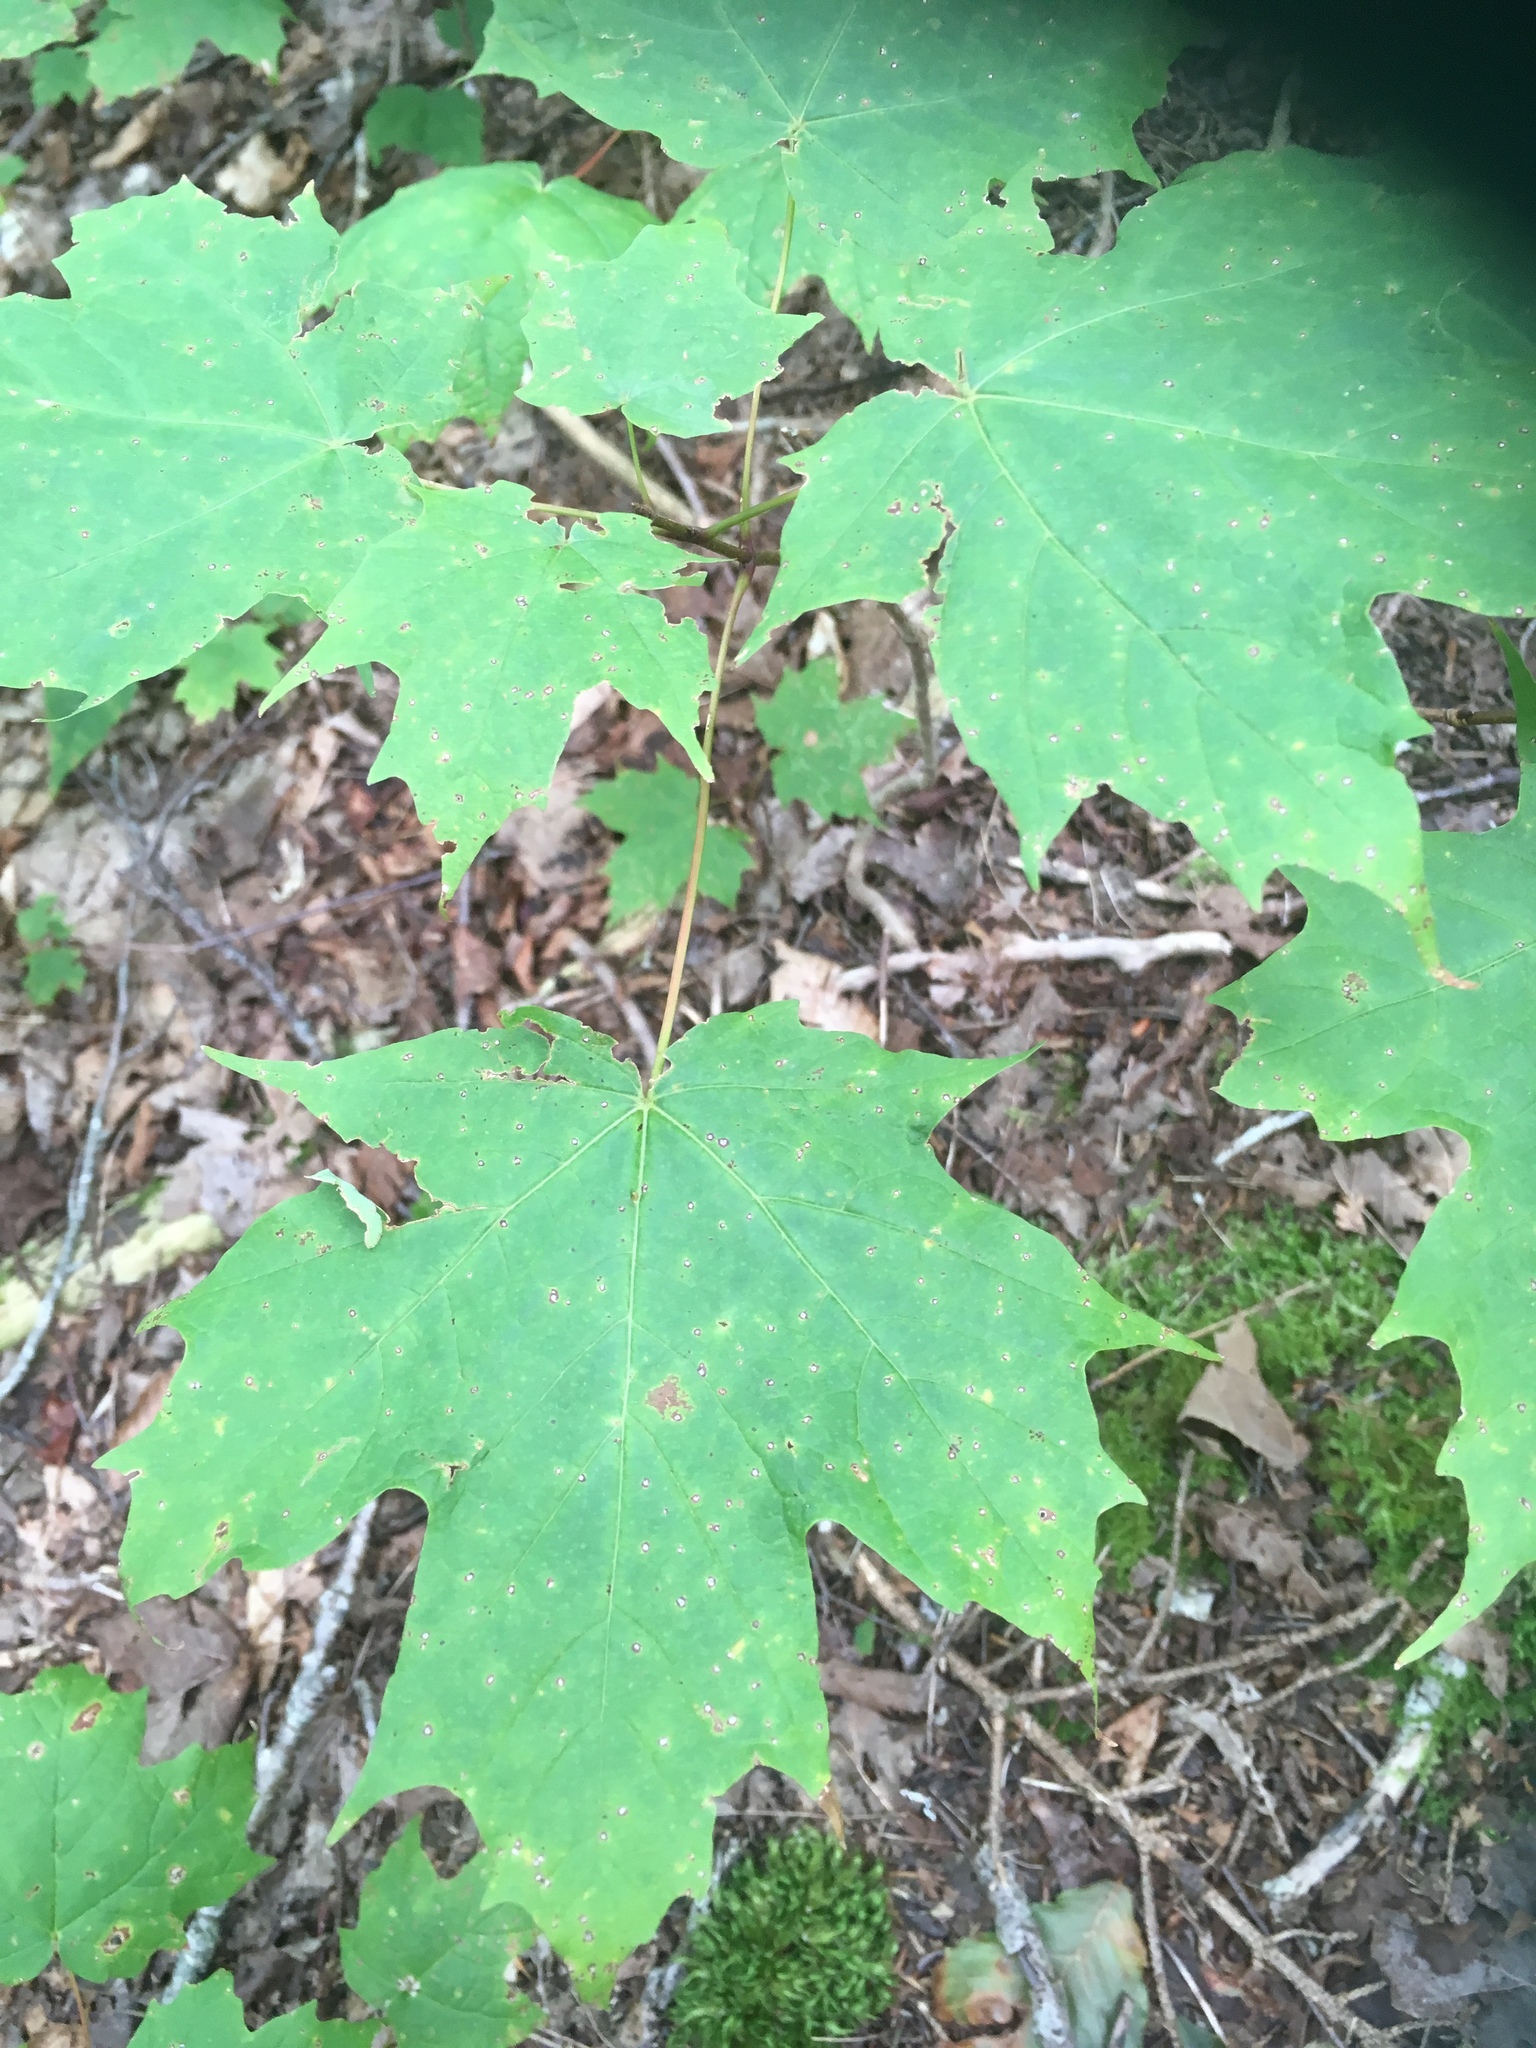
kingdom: Plantae
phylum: Tracheophyta
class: Magnoliopsida
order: Sapindales
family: Sapindaceae
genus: Acer
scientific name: Acer saccharum
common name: Sugar maple
